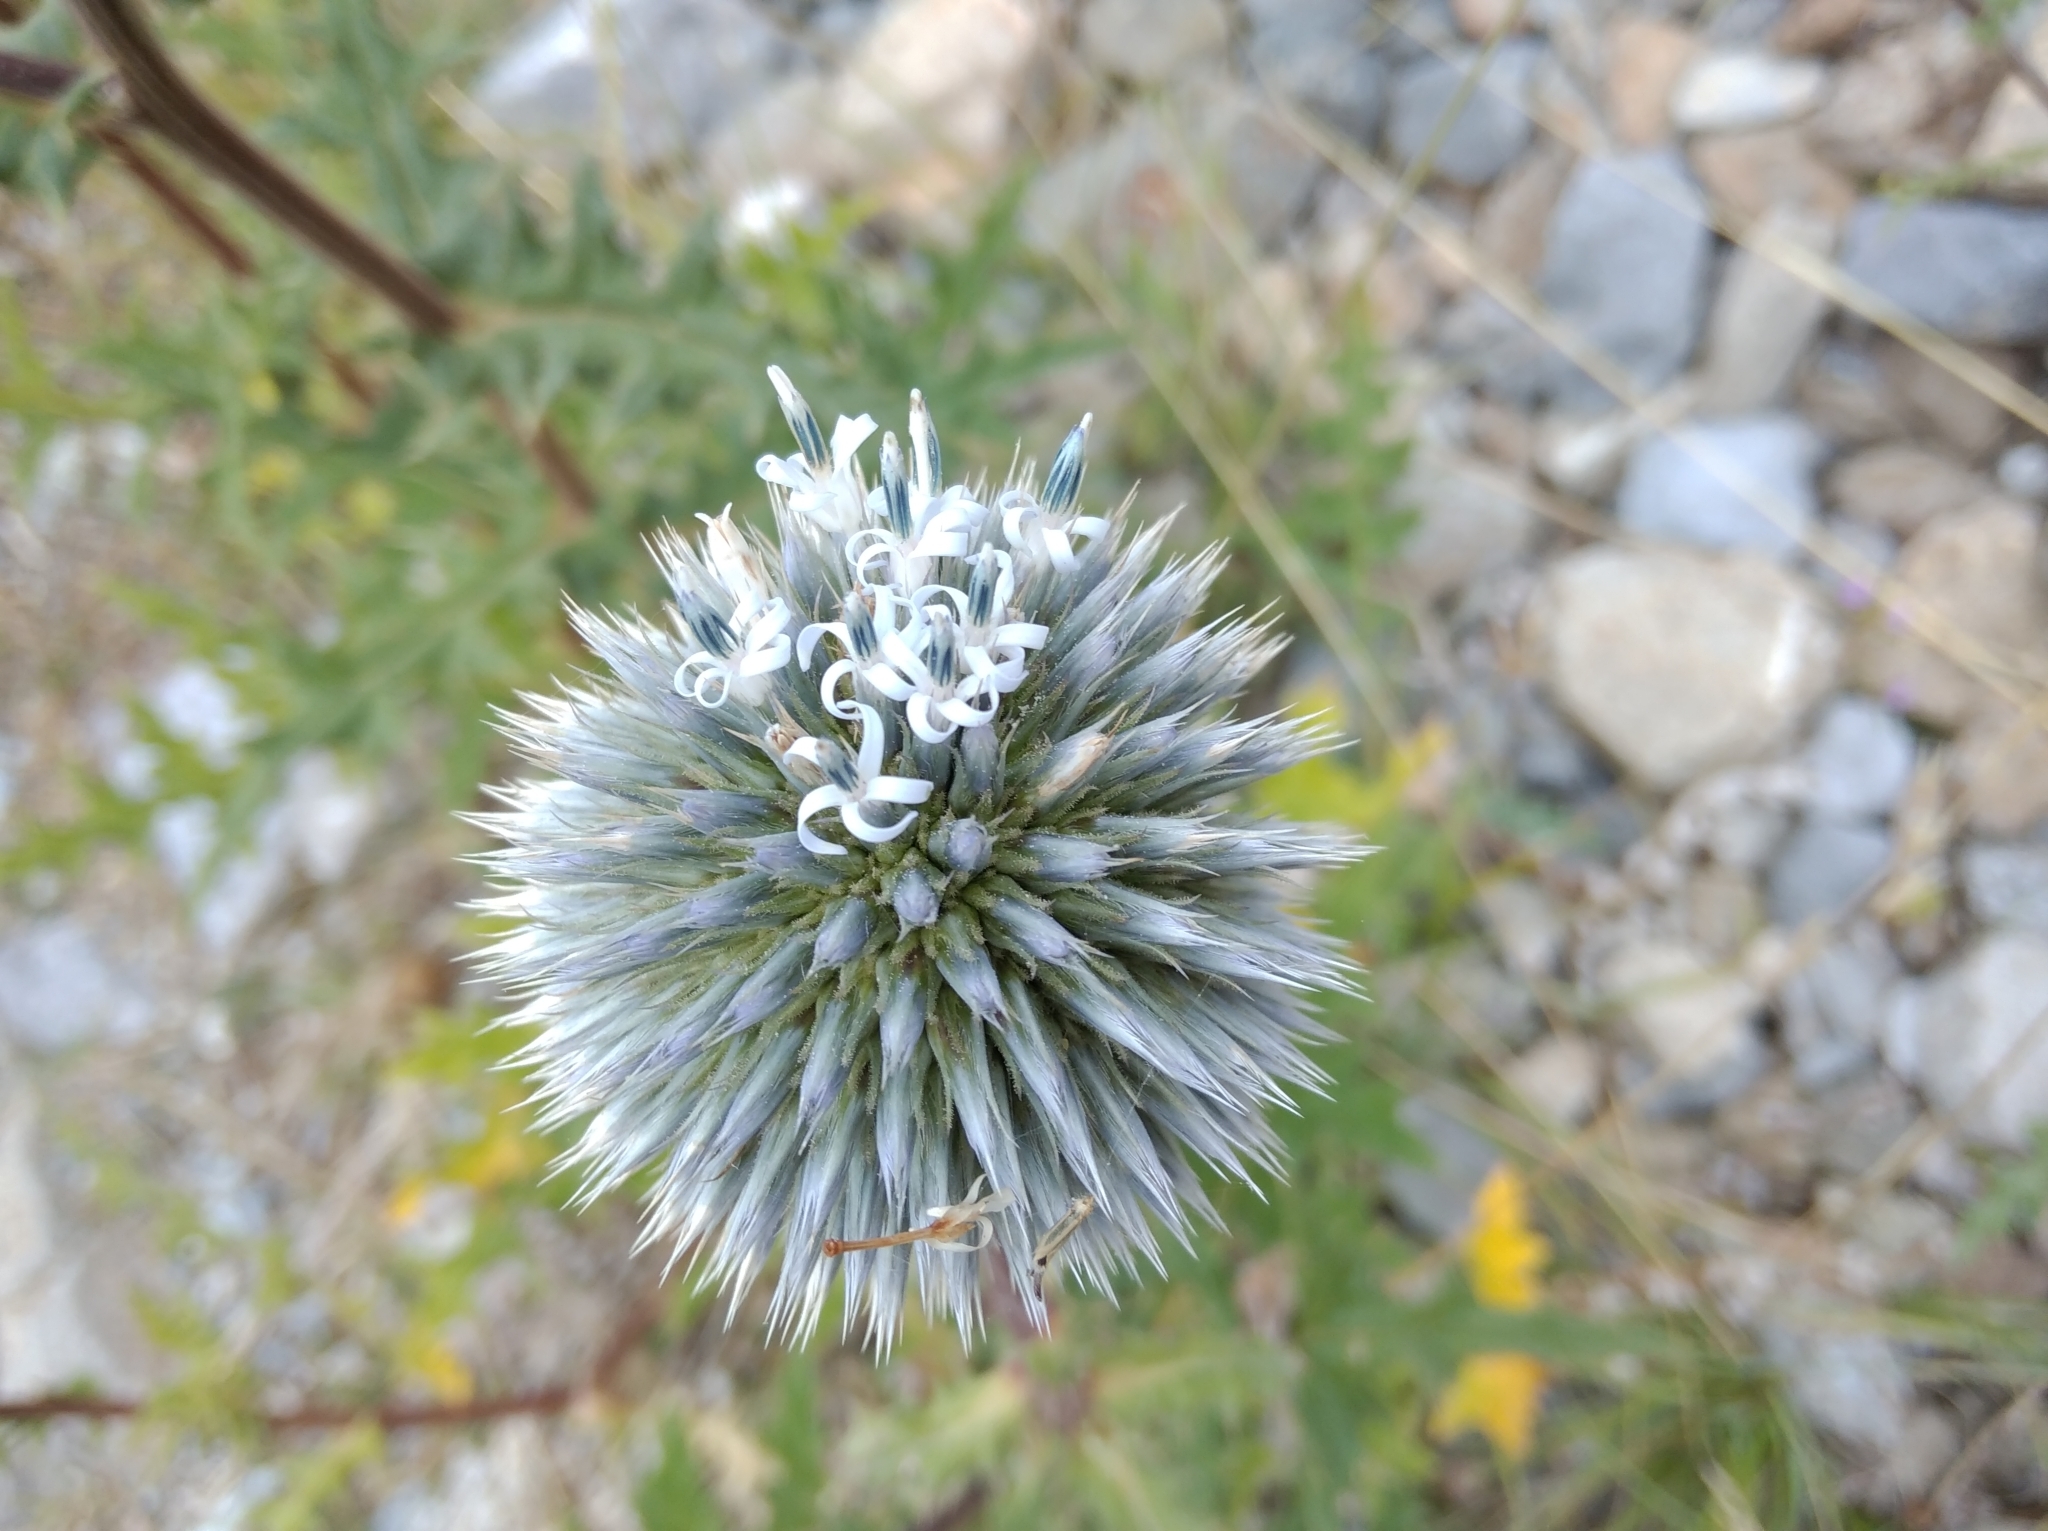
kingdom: Plantae
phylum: Tracheophyta
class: Magnoliopsida
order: Asterales
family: Asteraceae
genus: Echinops
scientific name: Echinops sphaerocephalus
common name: Glandular globe-thistle
